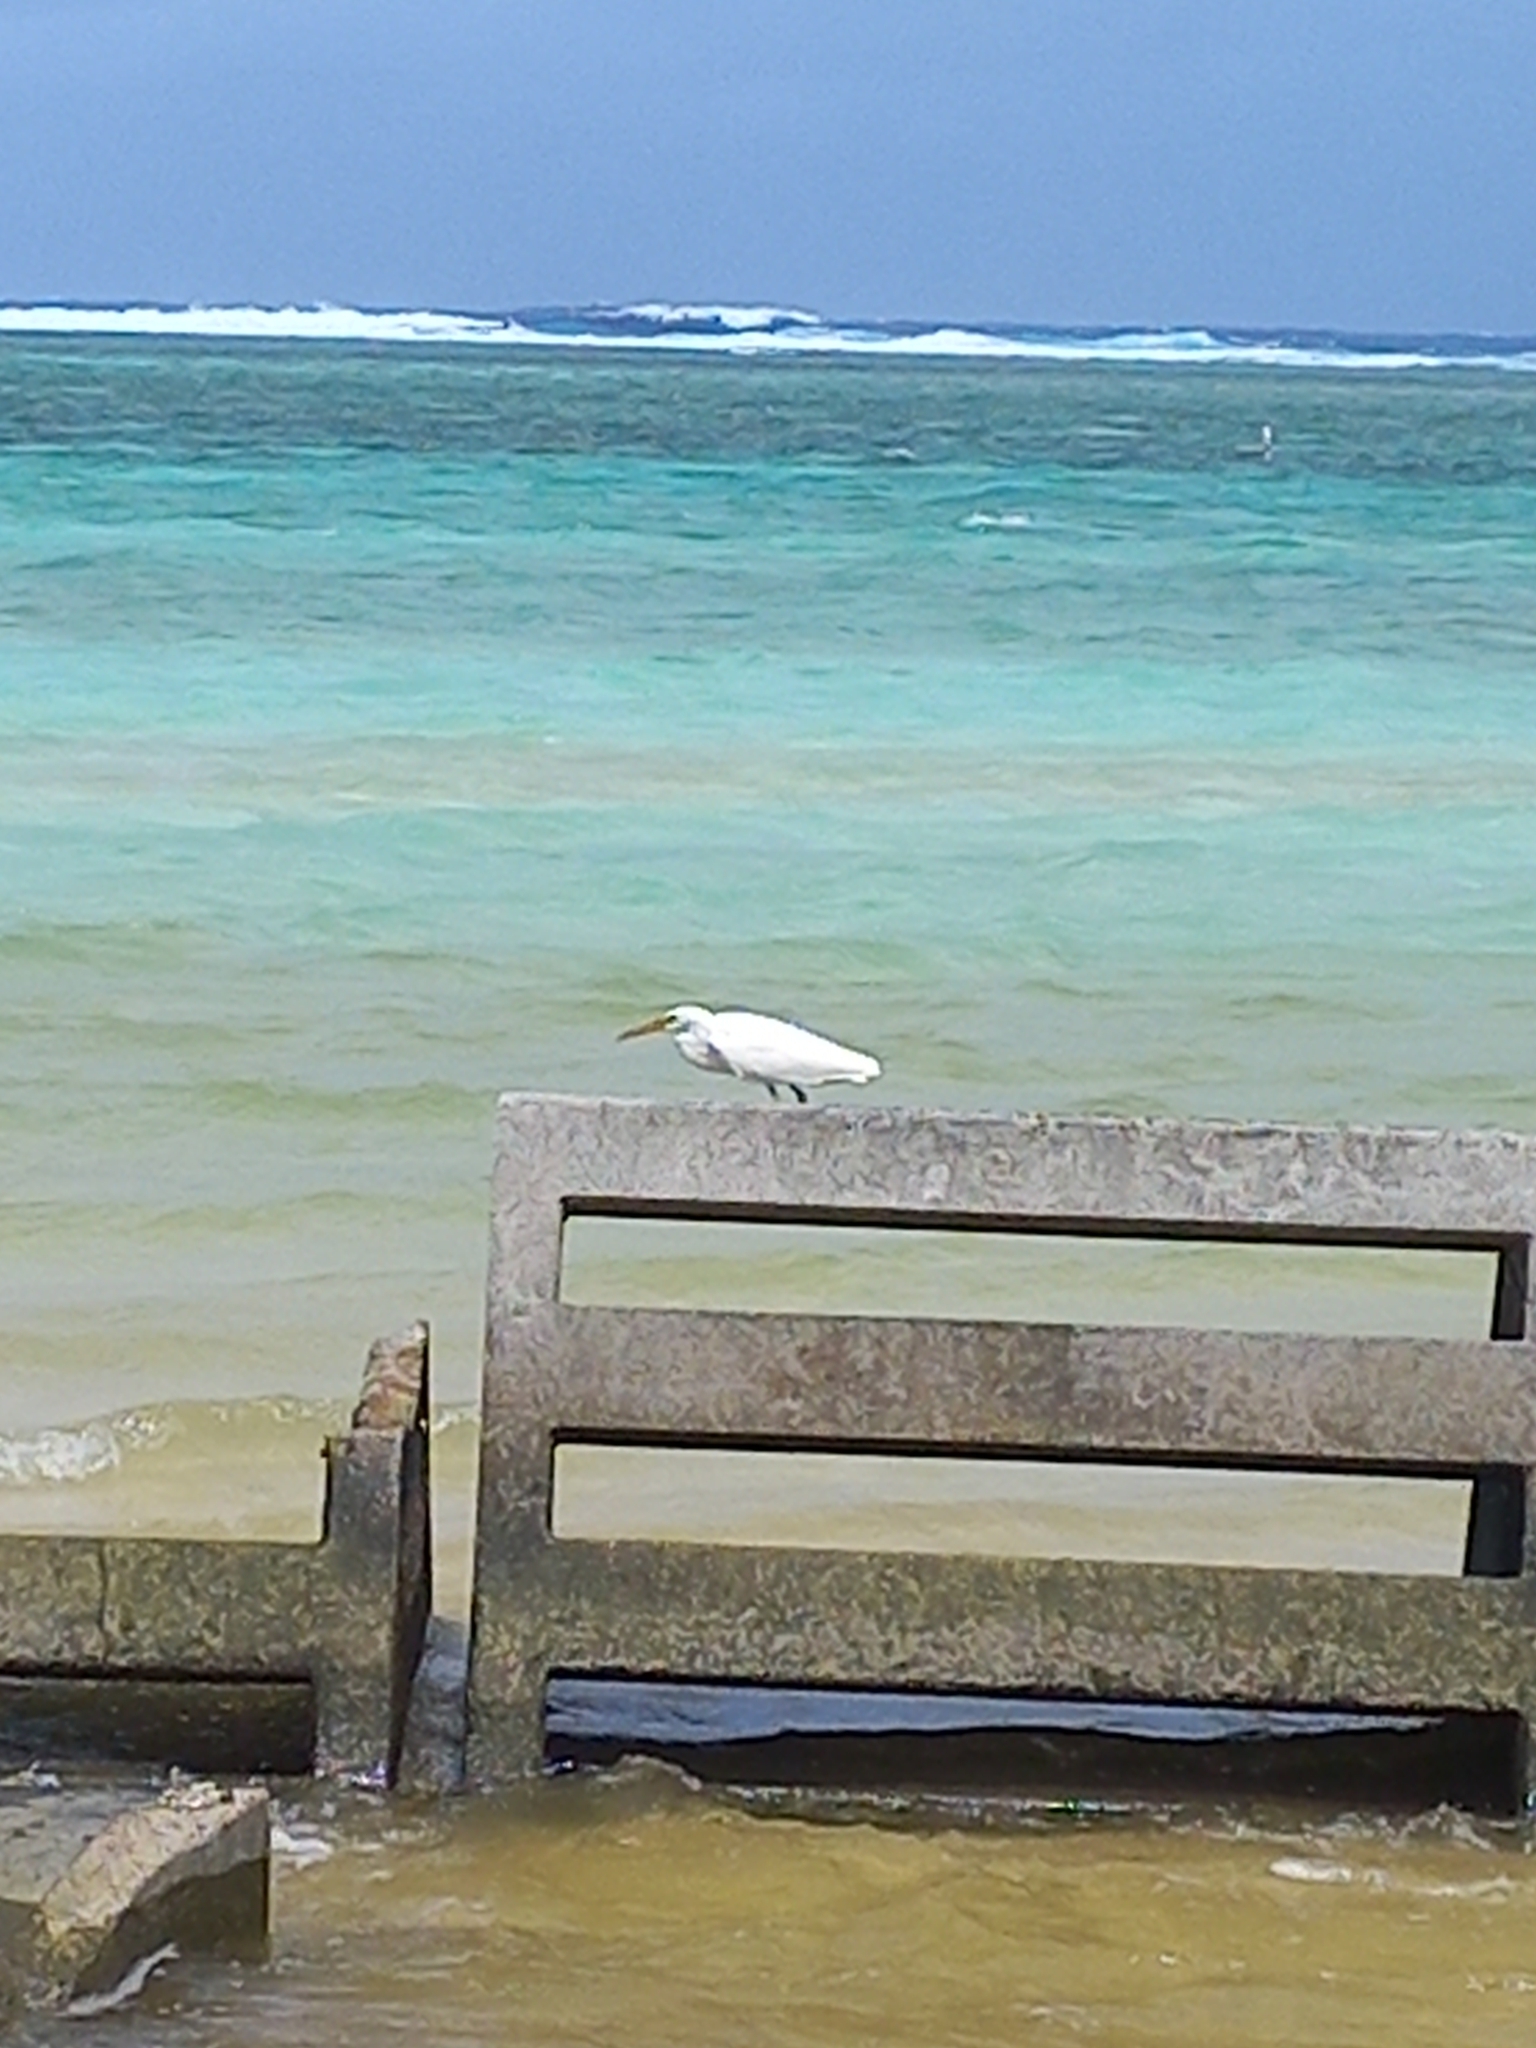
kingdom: Animalia
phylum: Chordata
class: Aves
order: Pelecaniformes
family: Ardeidae
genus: Egretta
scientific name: Egretta sacra
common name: Pacific reef heron
